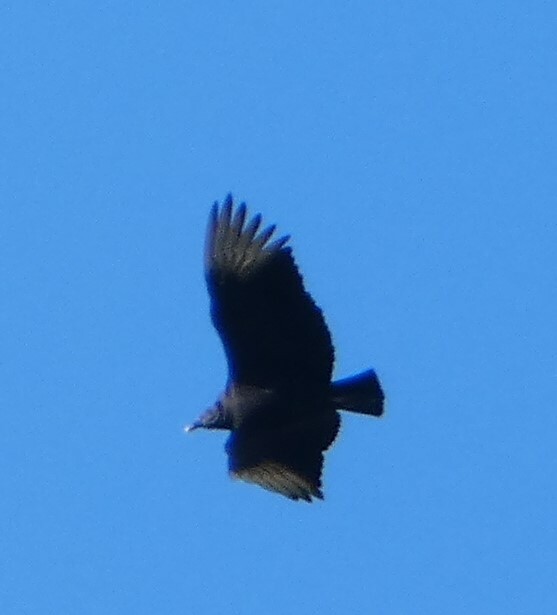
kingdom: Animalia
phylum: Chordata
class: Aves
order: Accipitriformes
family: Cathartidae
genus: Coragyps
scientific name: Coragyps atratus
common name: Black vulture
